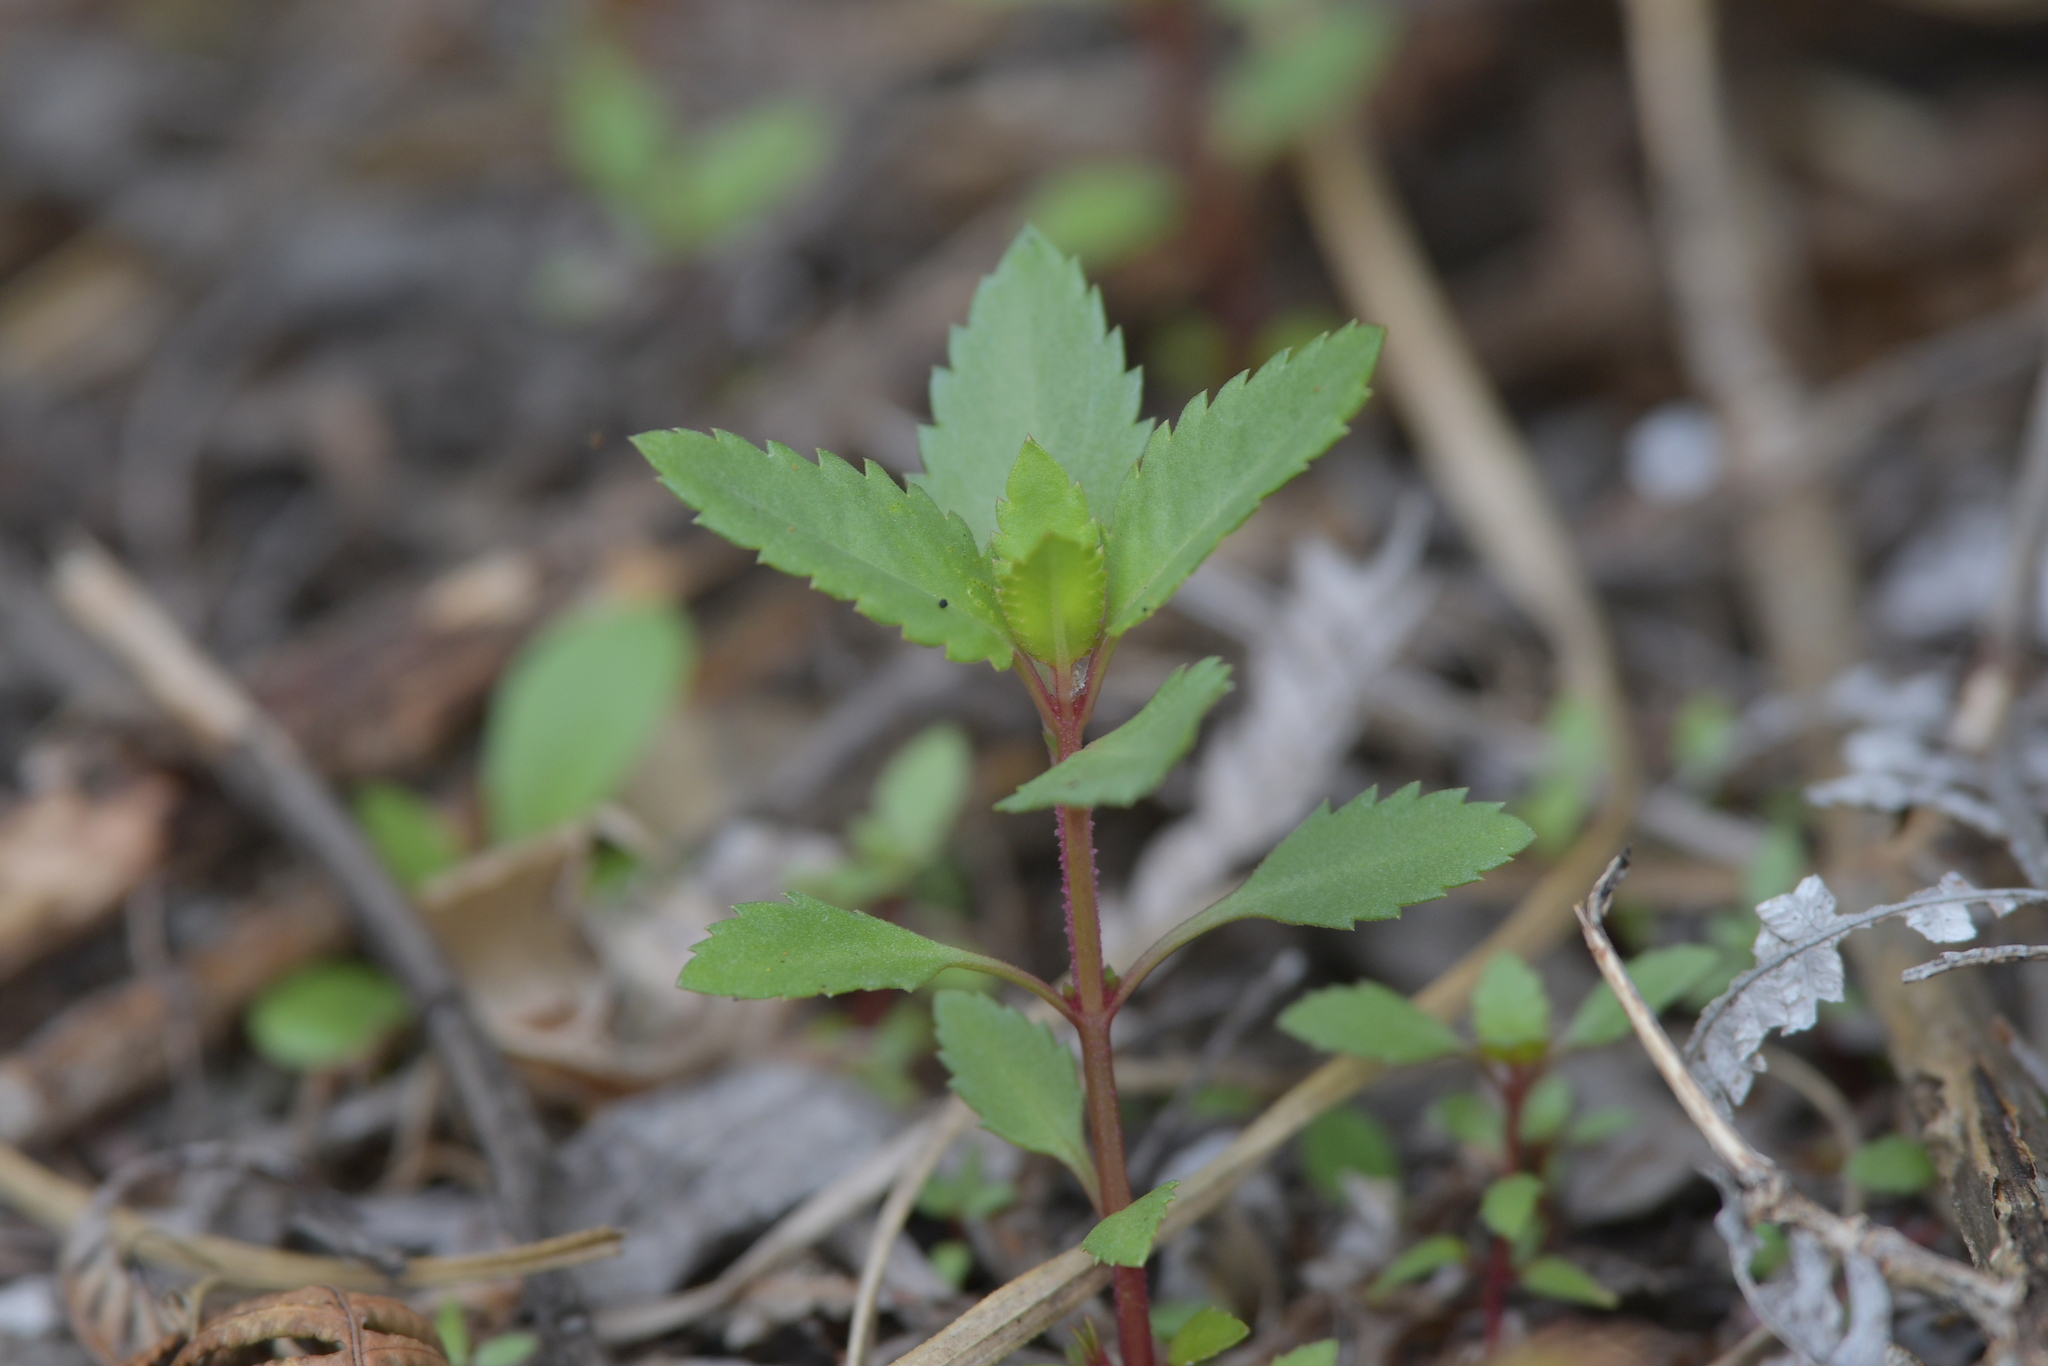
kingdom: Plantae
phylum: Tracheophyta
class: Magnoliopsida
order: Saxifragales
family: Haloragaceae
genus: Haloragis
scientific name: Haloragis erecta
